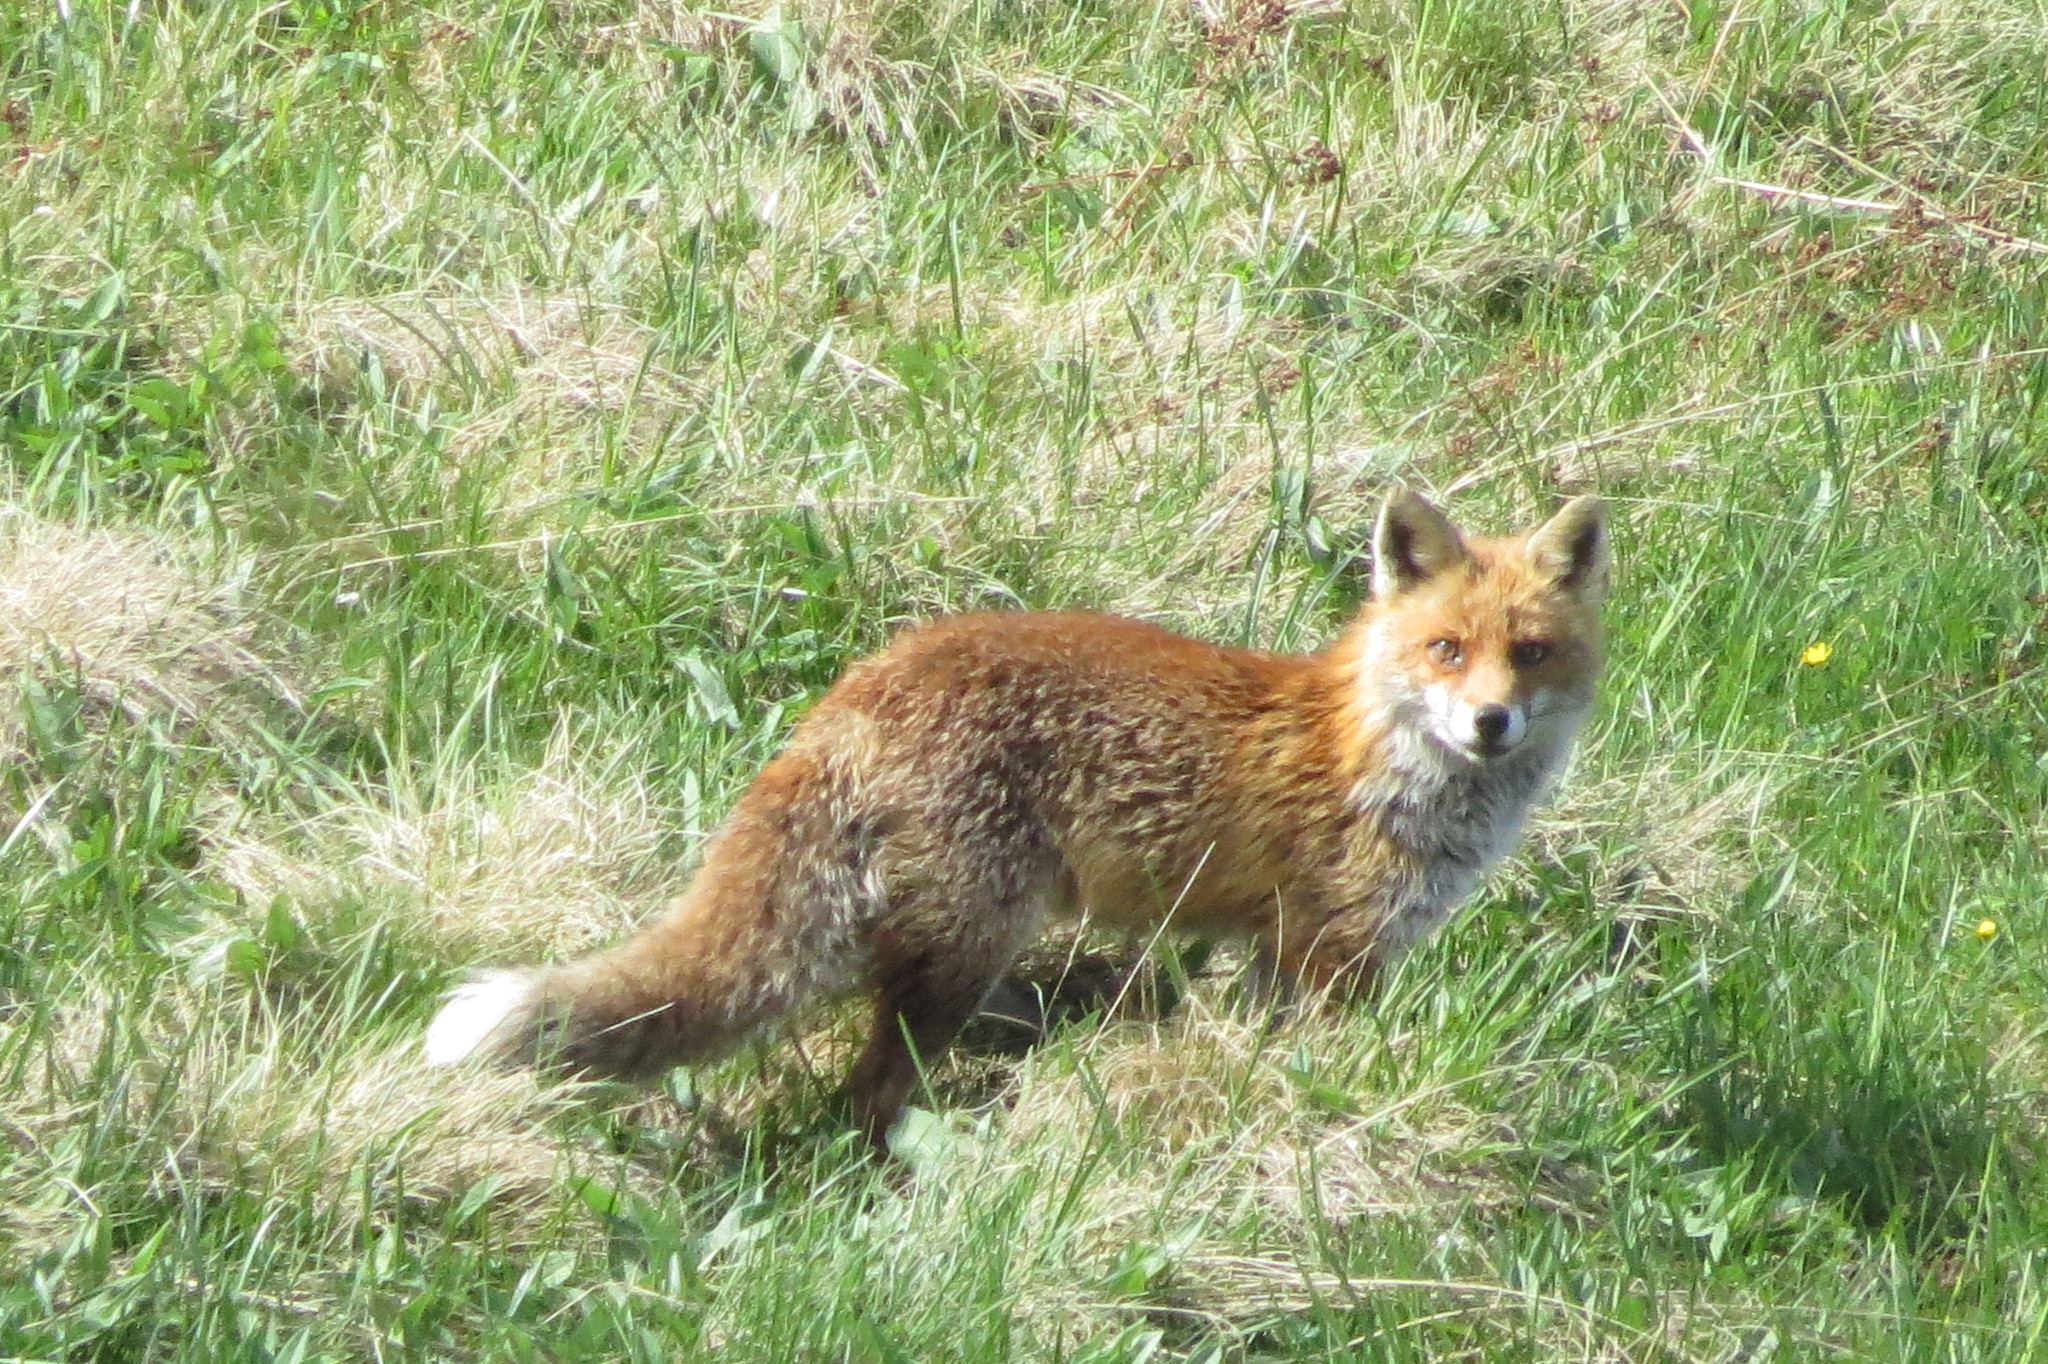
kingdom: Animalia
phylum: Chordata
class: Mammalia
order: Carnivora
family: Canidae
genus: Vulpes
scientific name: Vulpes vulpes
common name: Red fox
